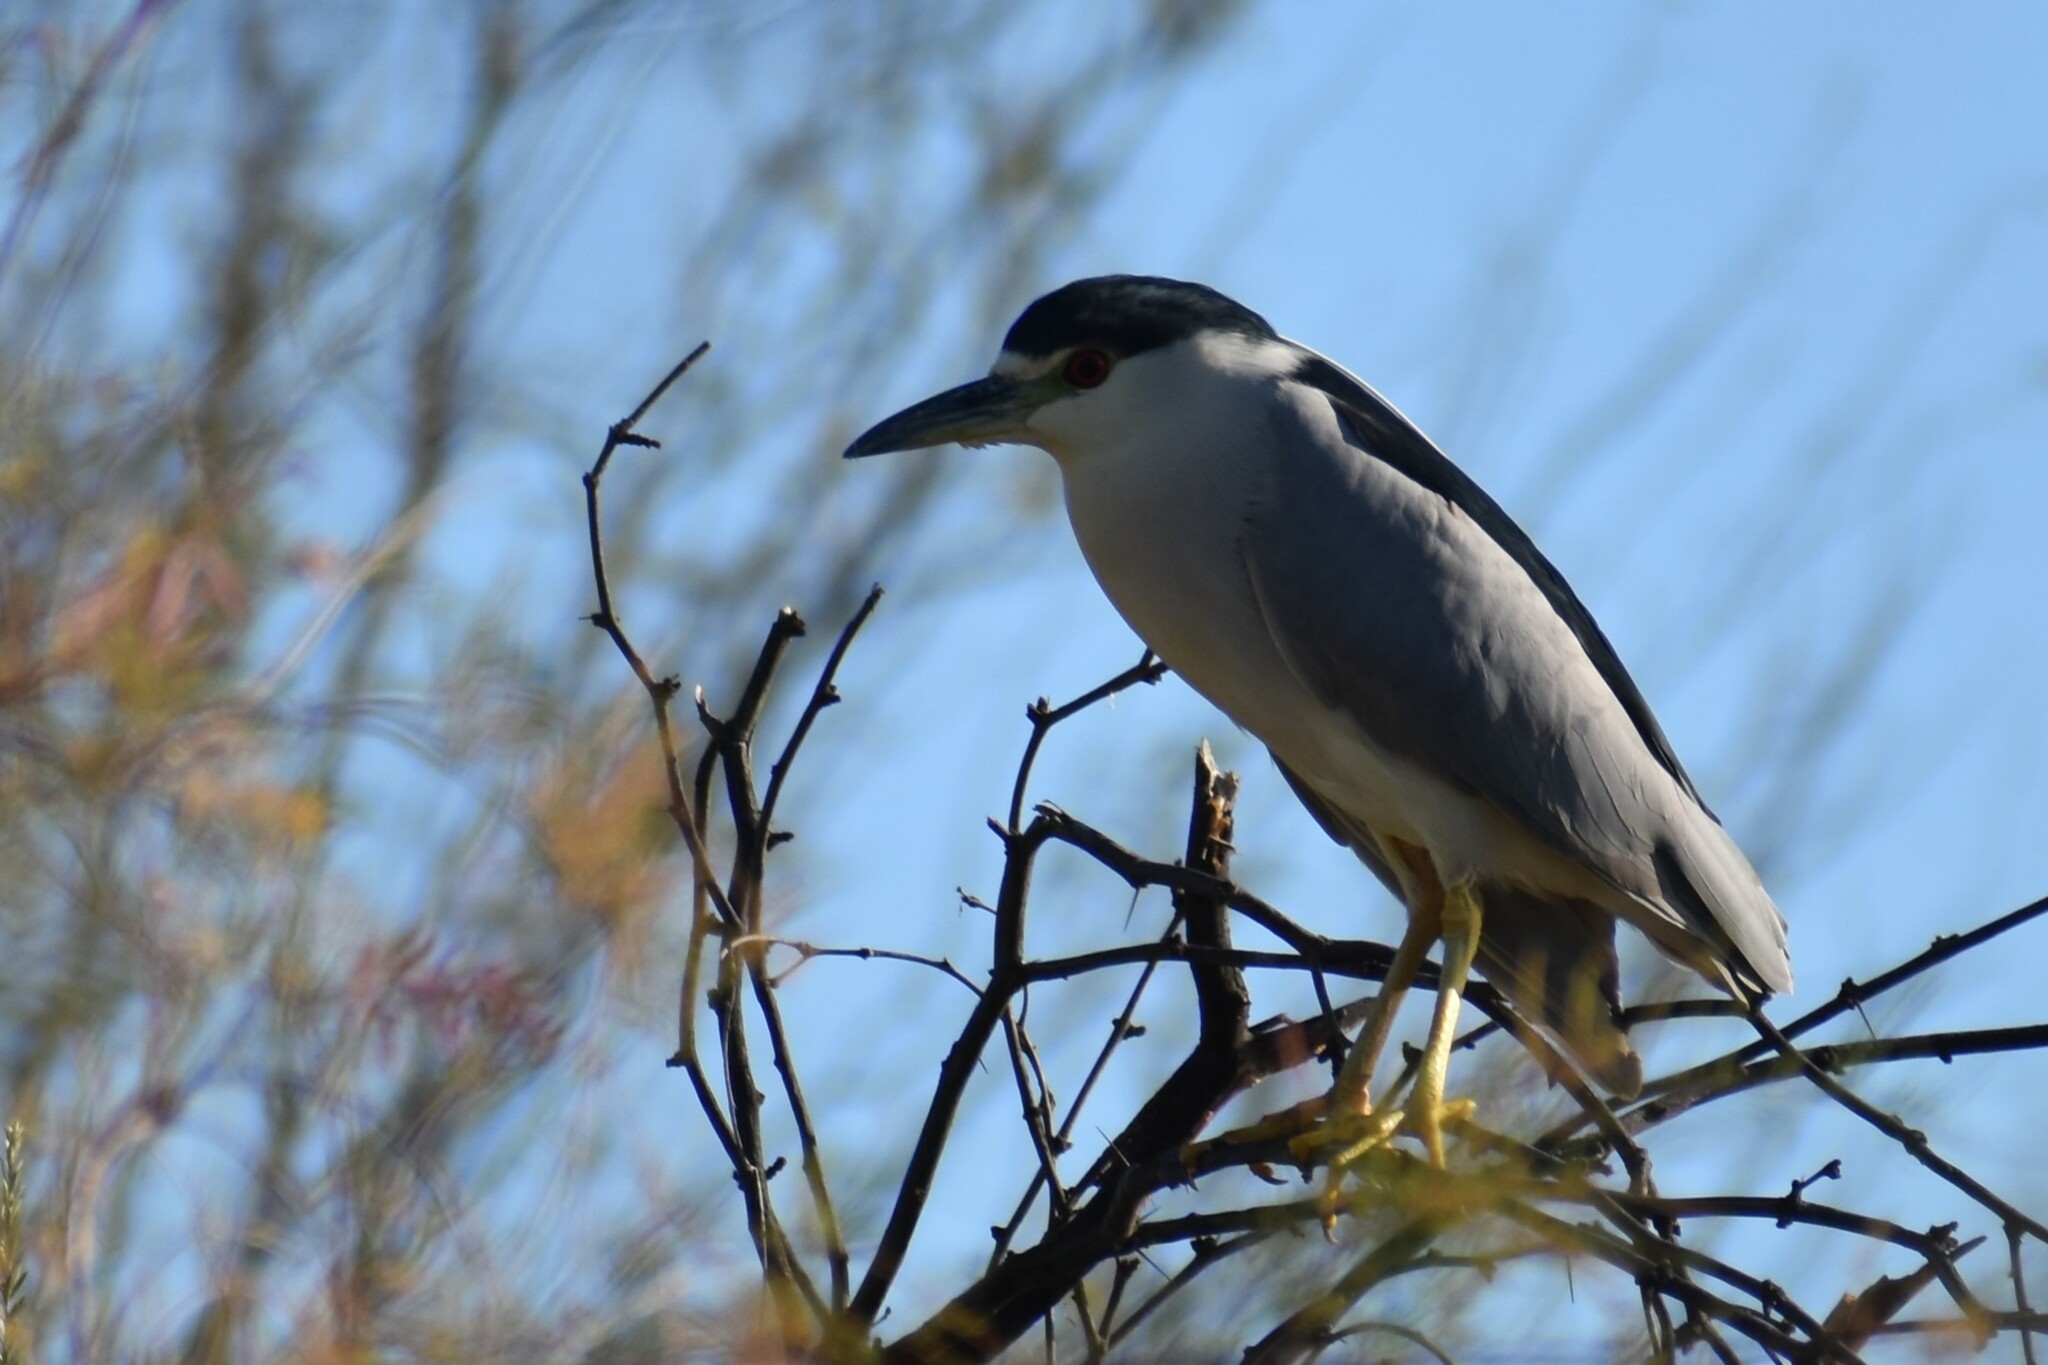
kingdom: Animalia
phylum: Chordata
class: Aves
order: Pelecaniformes
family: Ardeidae
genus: Nycticorax
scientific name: Nycticorax nycticorax
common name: Black-crowned night heron
